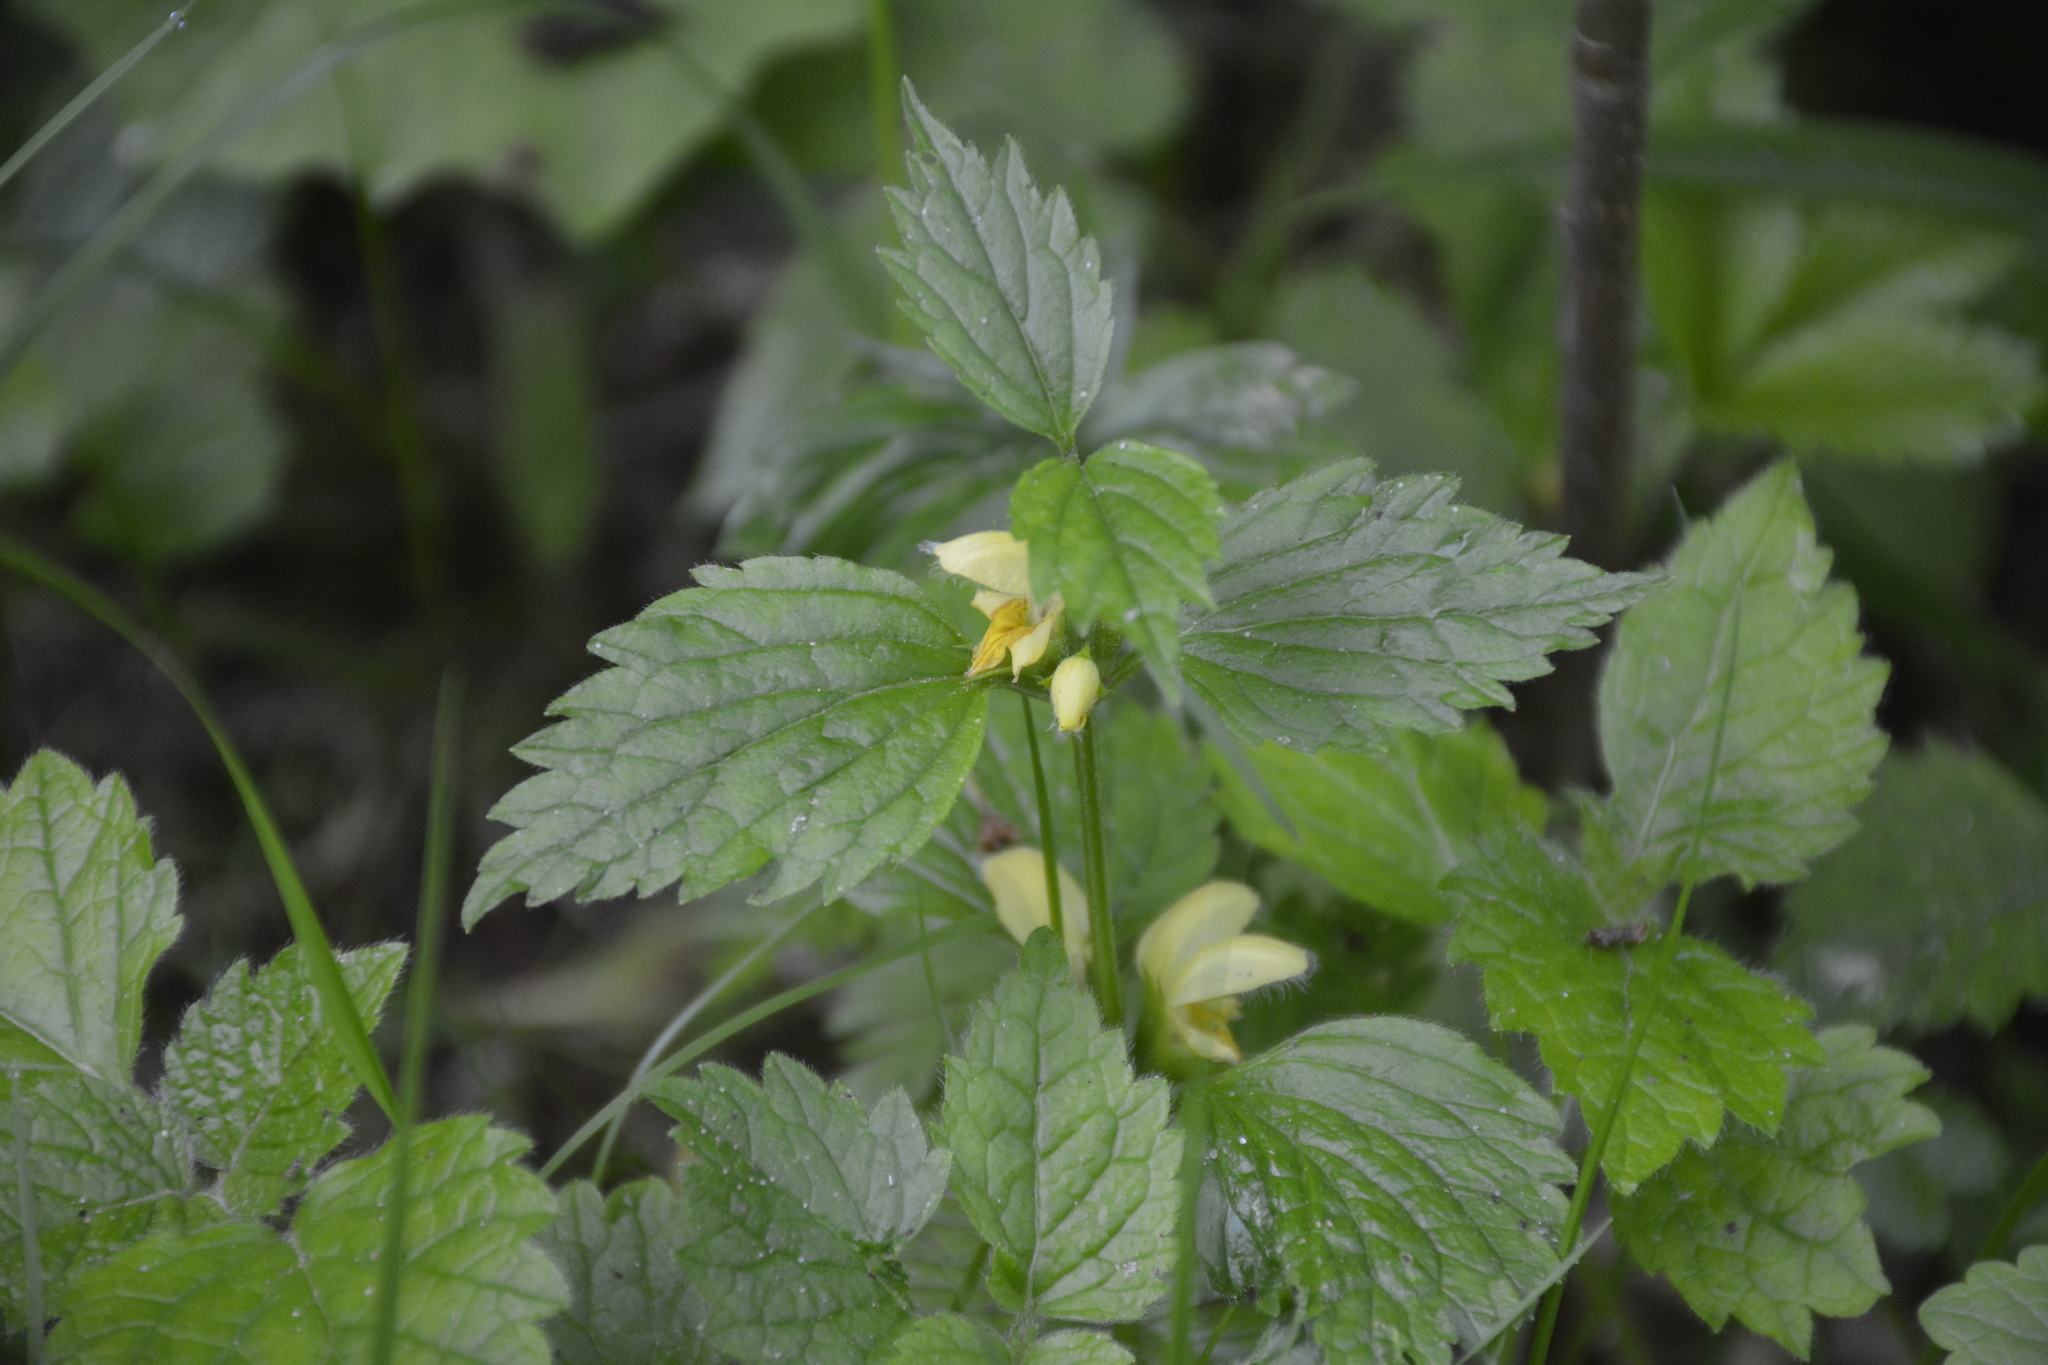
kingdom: Plantae
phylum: Tracheophyta
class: Magnoliopsida
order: Lamiales
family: Lamiaceae
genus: Lamium
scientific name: Lamium galeobdolon
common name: Yellow archangel
